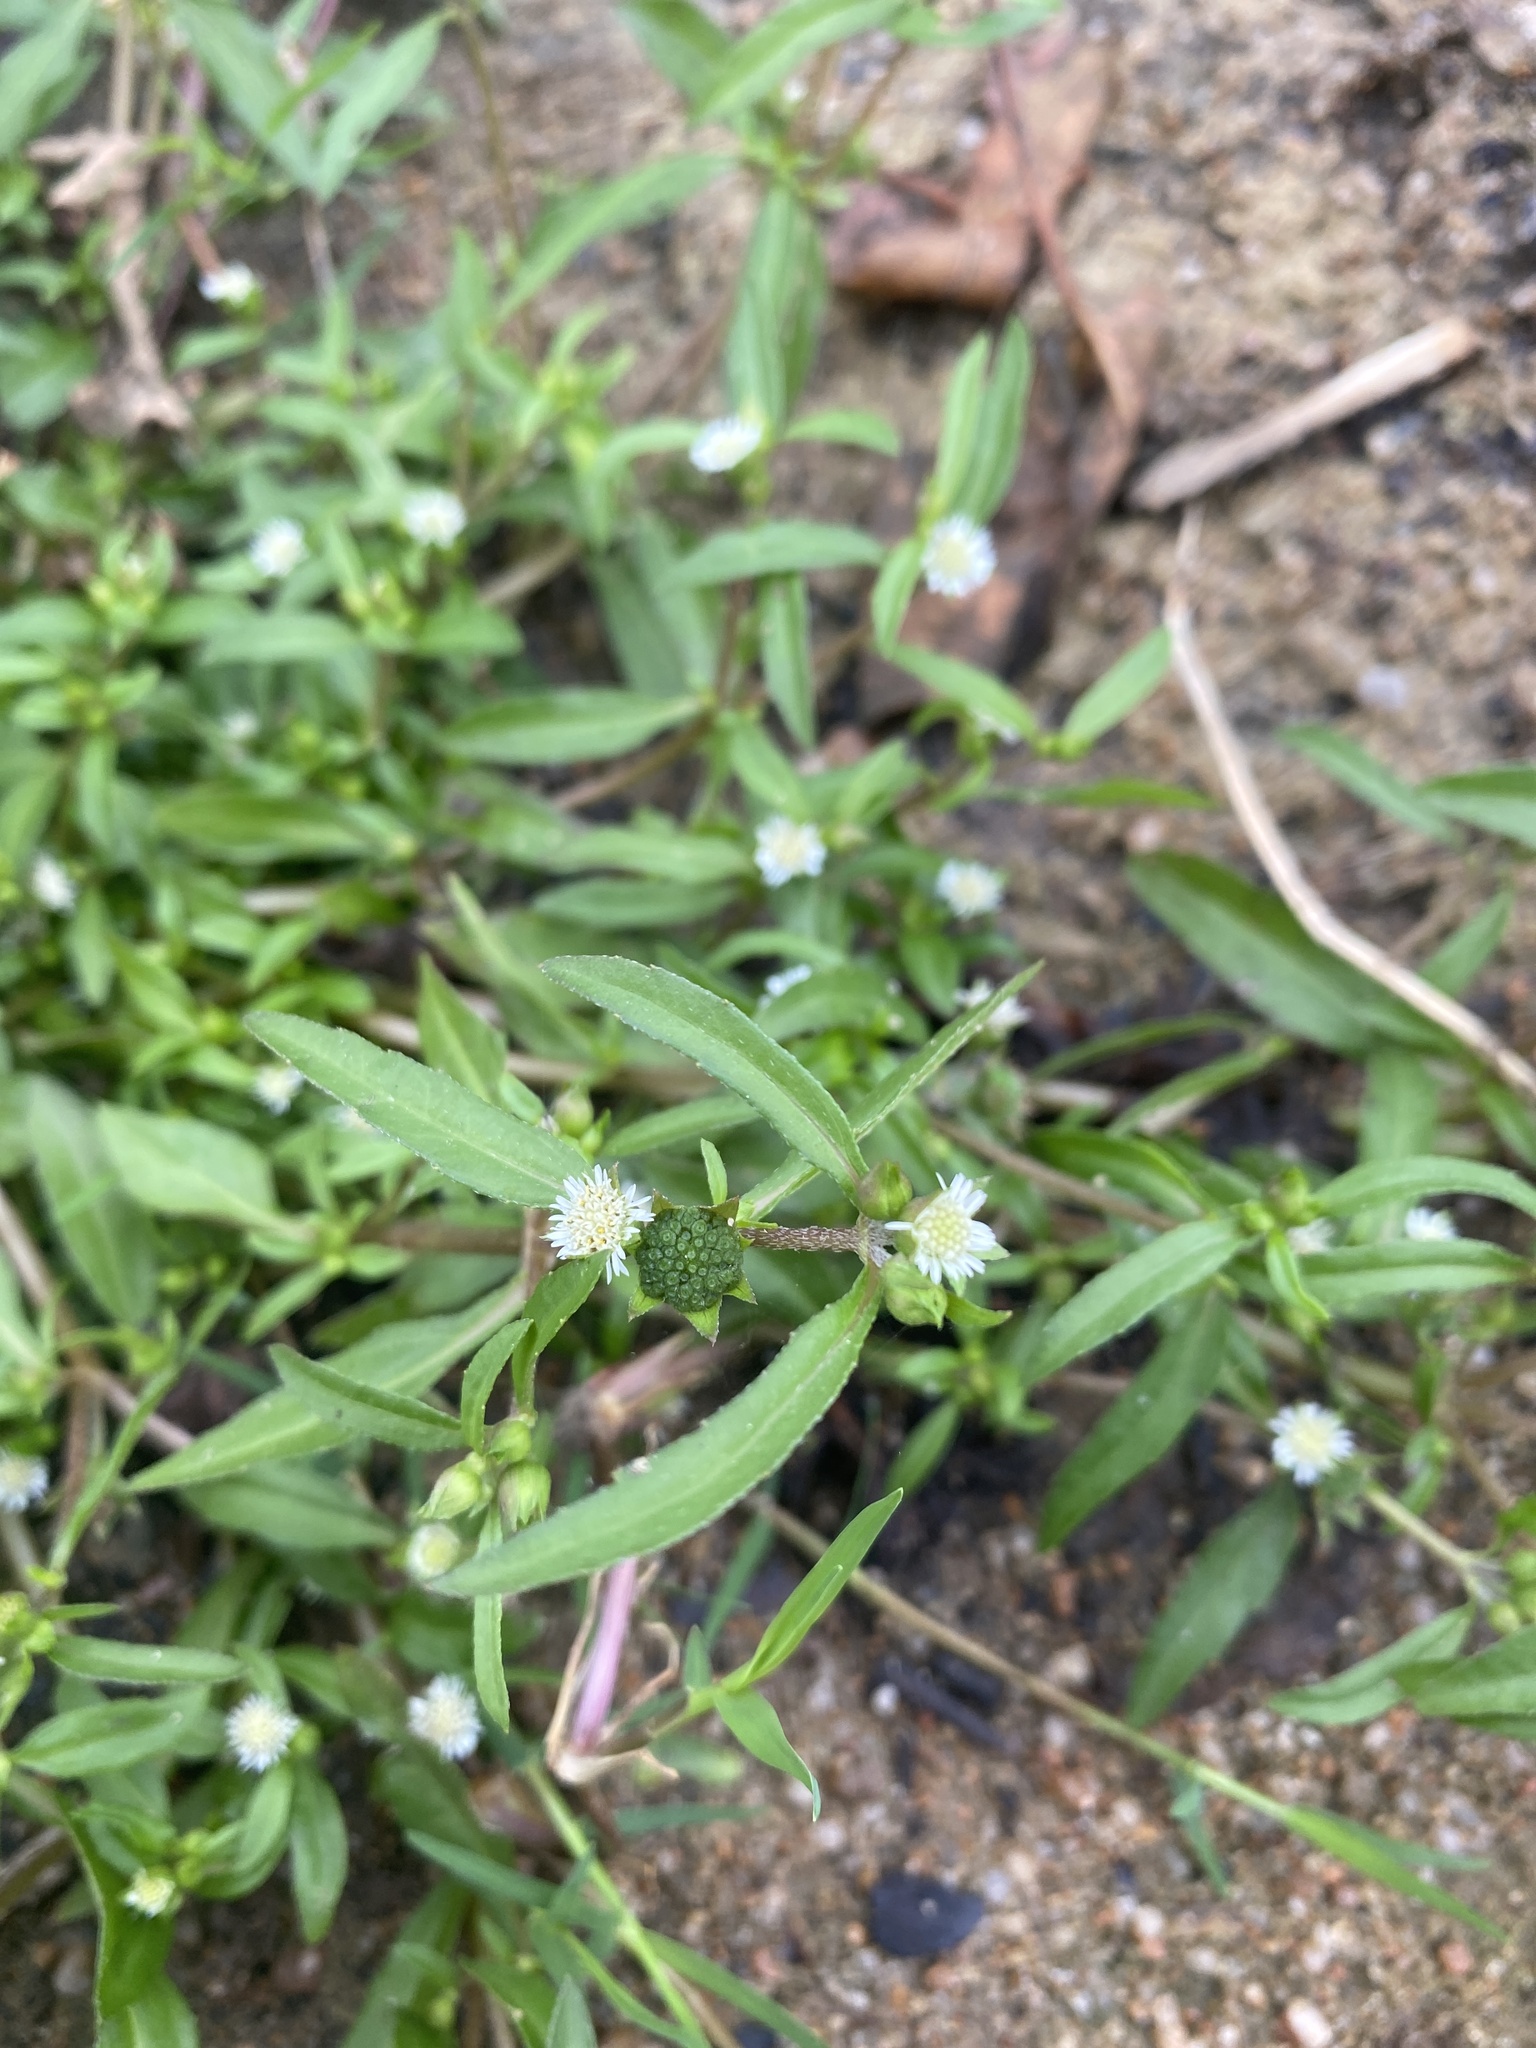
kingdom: Plantae
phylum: Tracheophyta
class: Magnoliopsida
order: Asterales
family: Asteraceae
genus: Eclipta
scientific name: Eclipta prostrata
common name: False daisy
